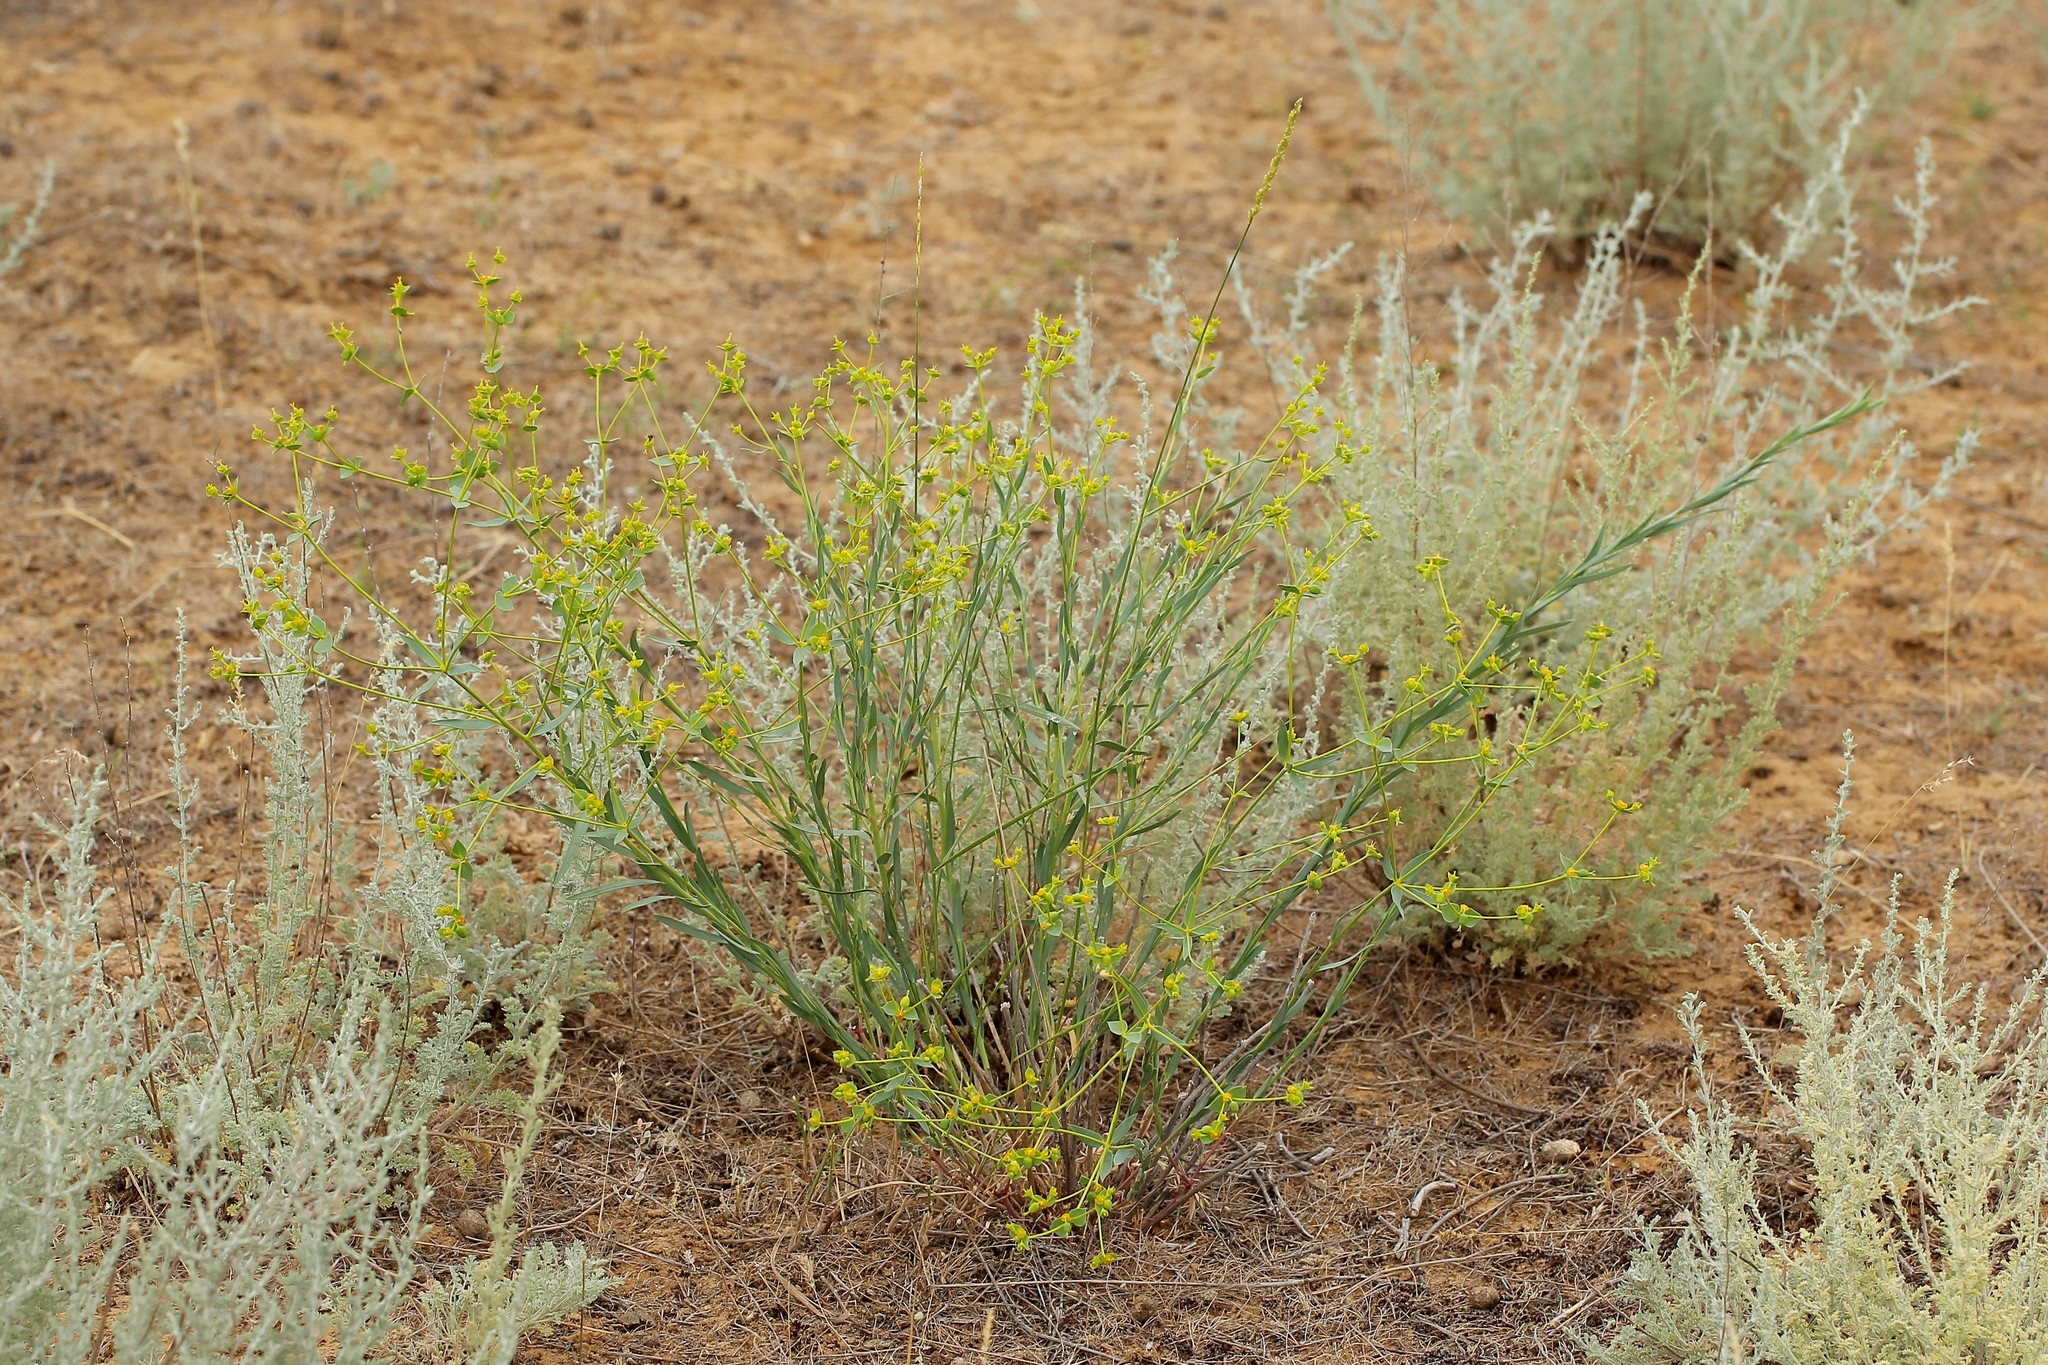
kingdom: Plantae
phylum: Tracheophyta
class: Magnoliopsida
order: Malpighiales
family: Euphorbiaceae
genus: Euphorbia
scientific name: Euphorbia seguieriana
